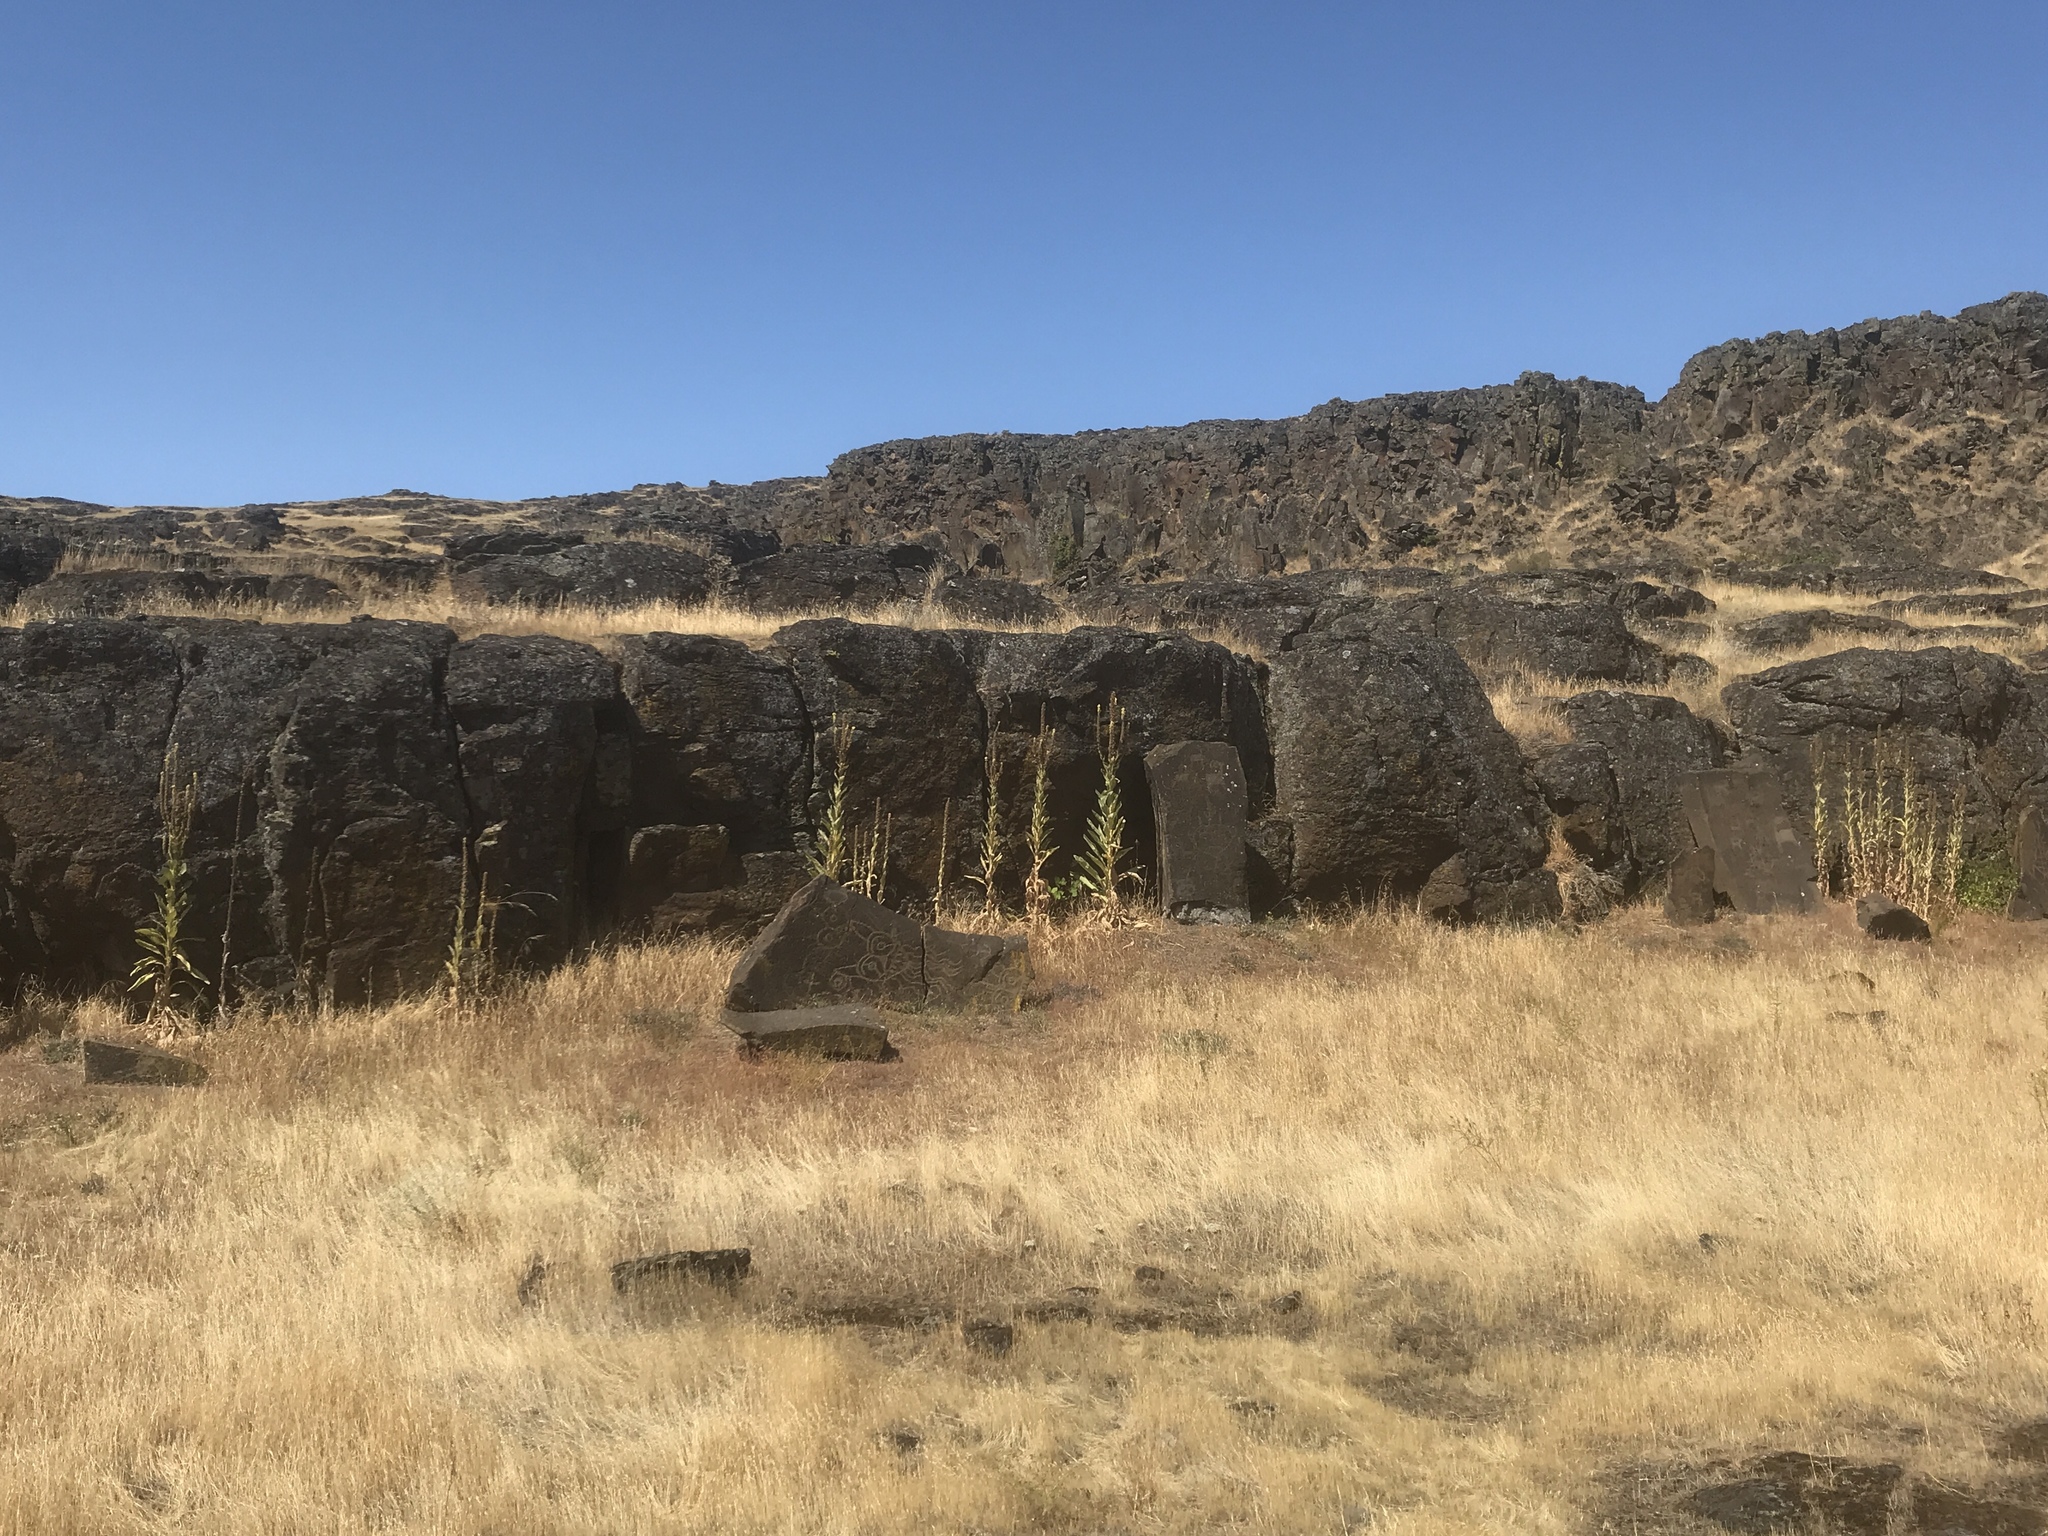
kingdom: Plantae
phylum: Tracheophyta
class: Magnoliopsida
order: Lamiales
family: Scrophulariaceae
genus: Verbascum
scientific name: Verbascum thapsus
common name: Common mullein
